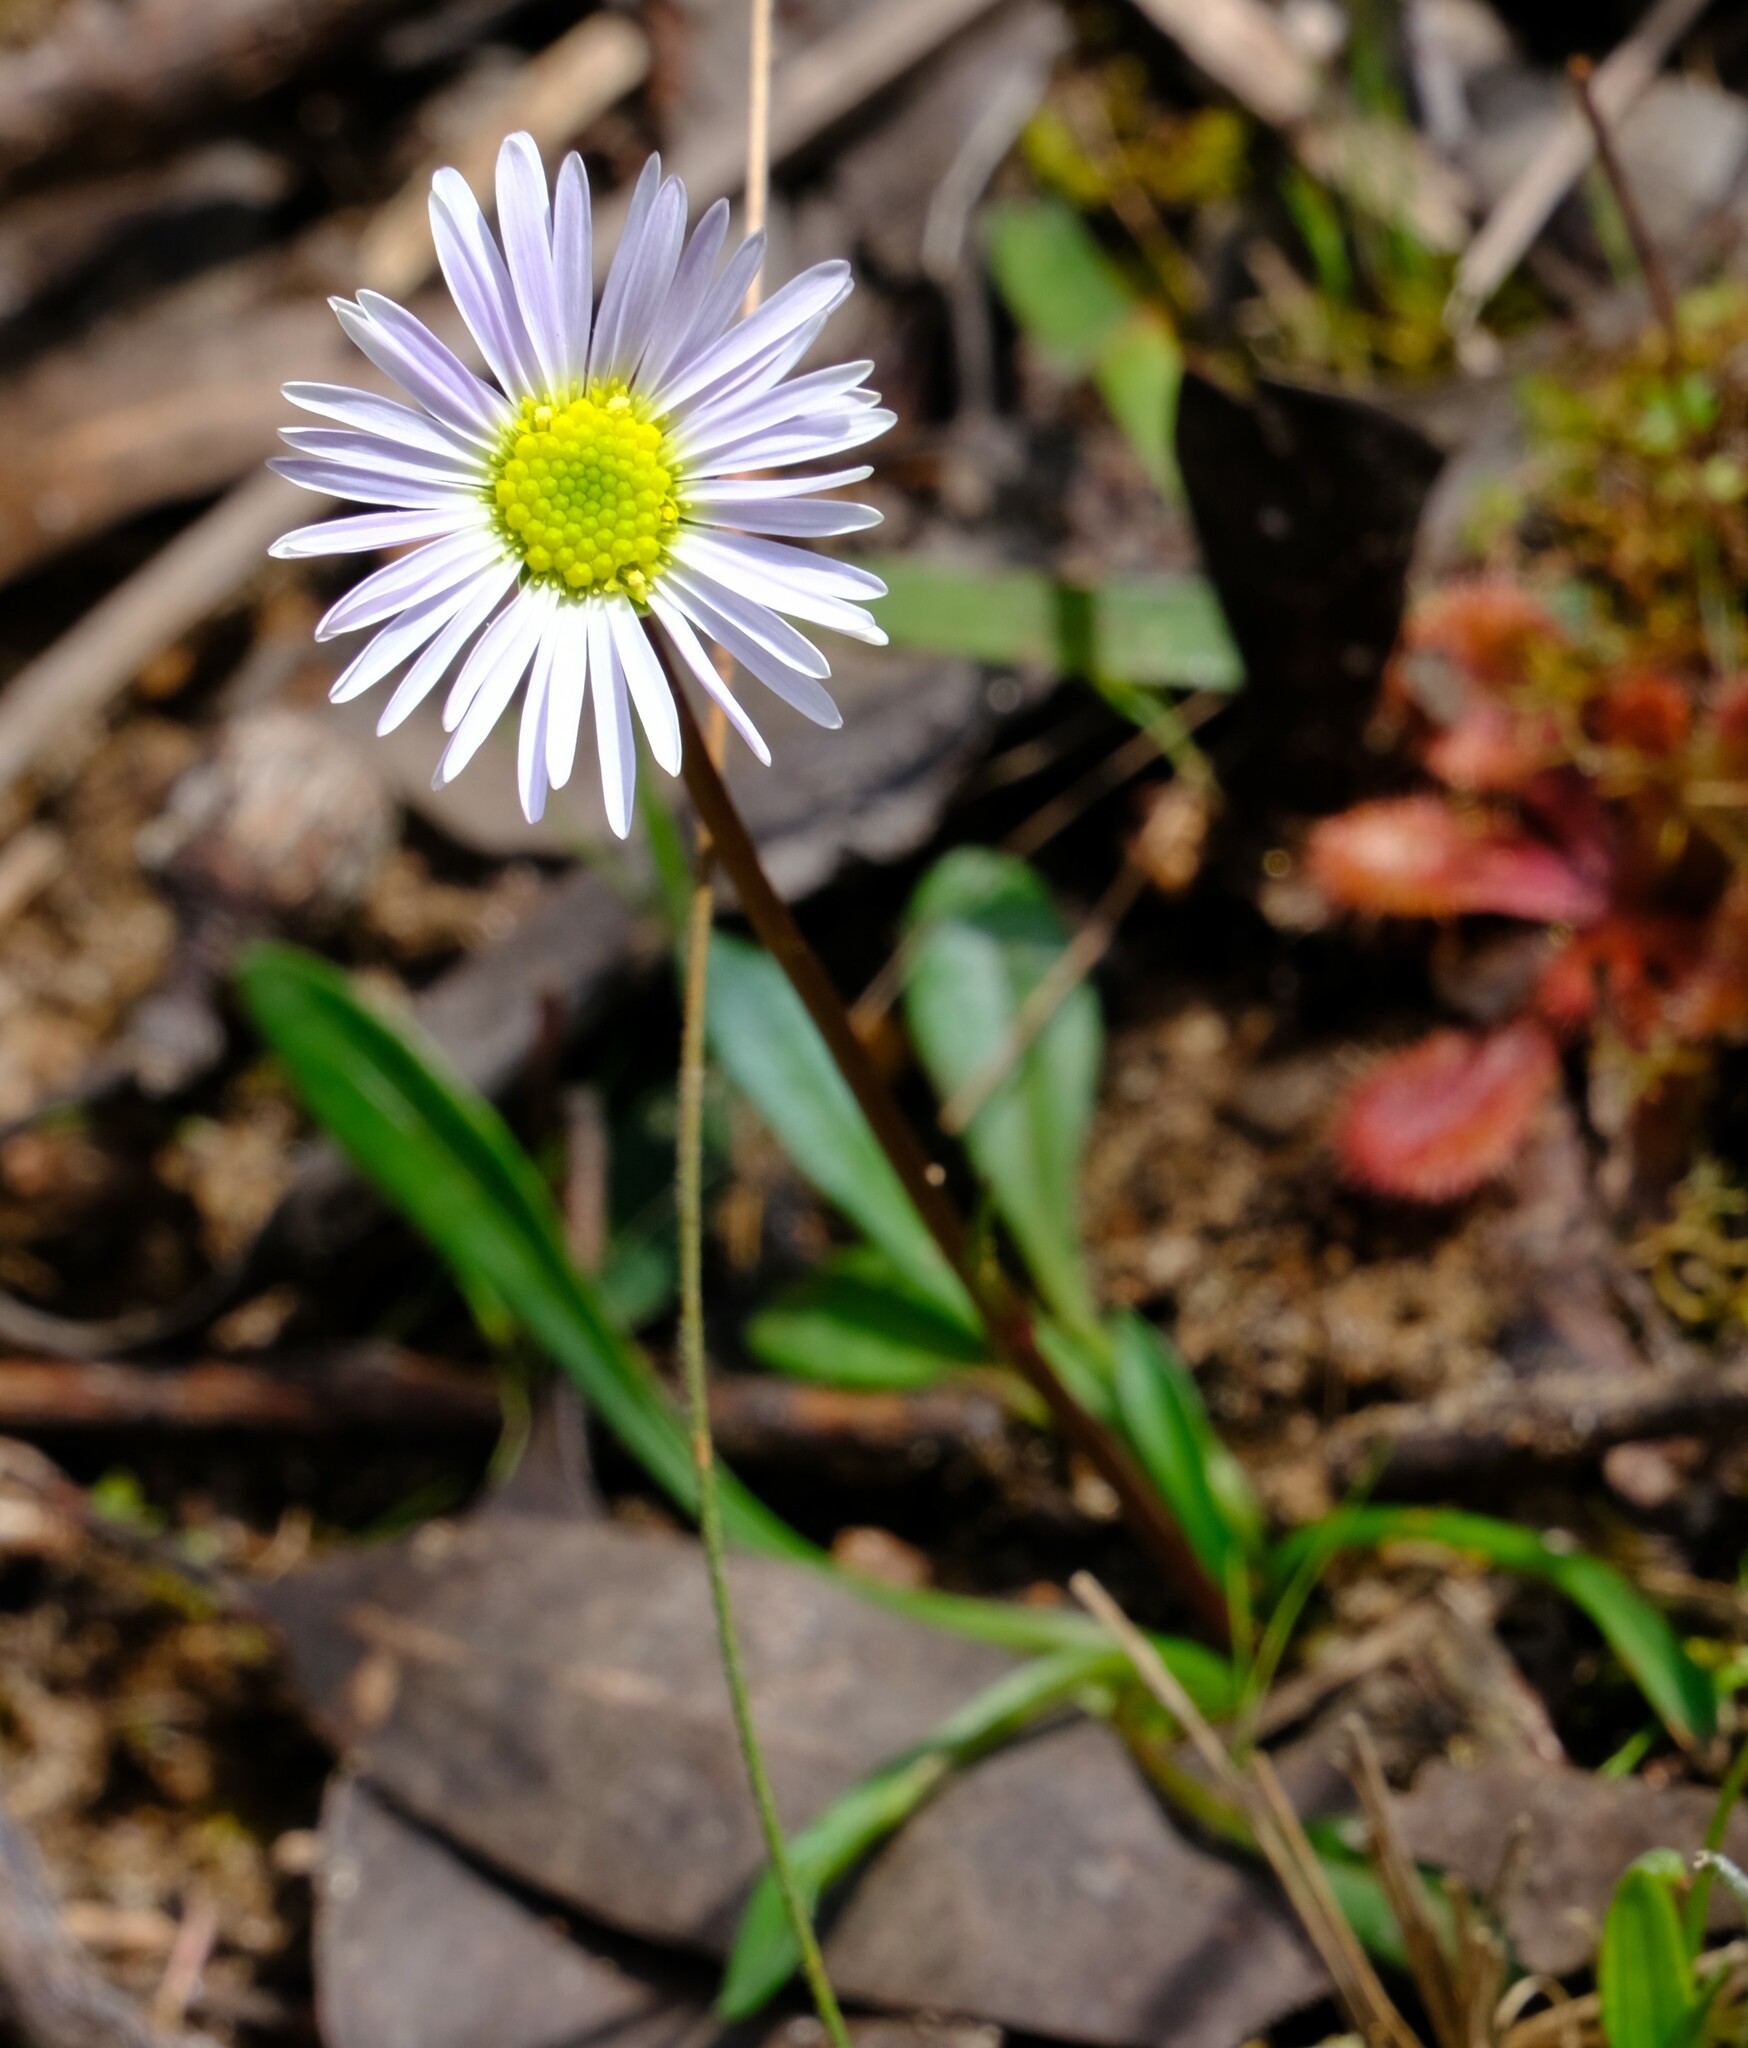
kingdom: Plantae
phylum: Tracheophyta
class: Magnoliopsida
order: Asterales
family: Asteraceae
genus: Allittia
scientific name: Allittia uliginosa
